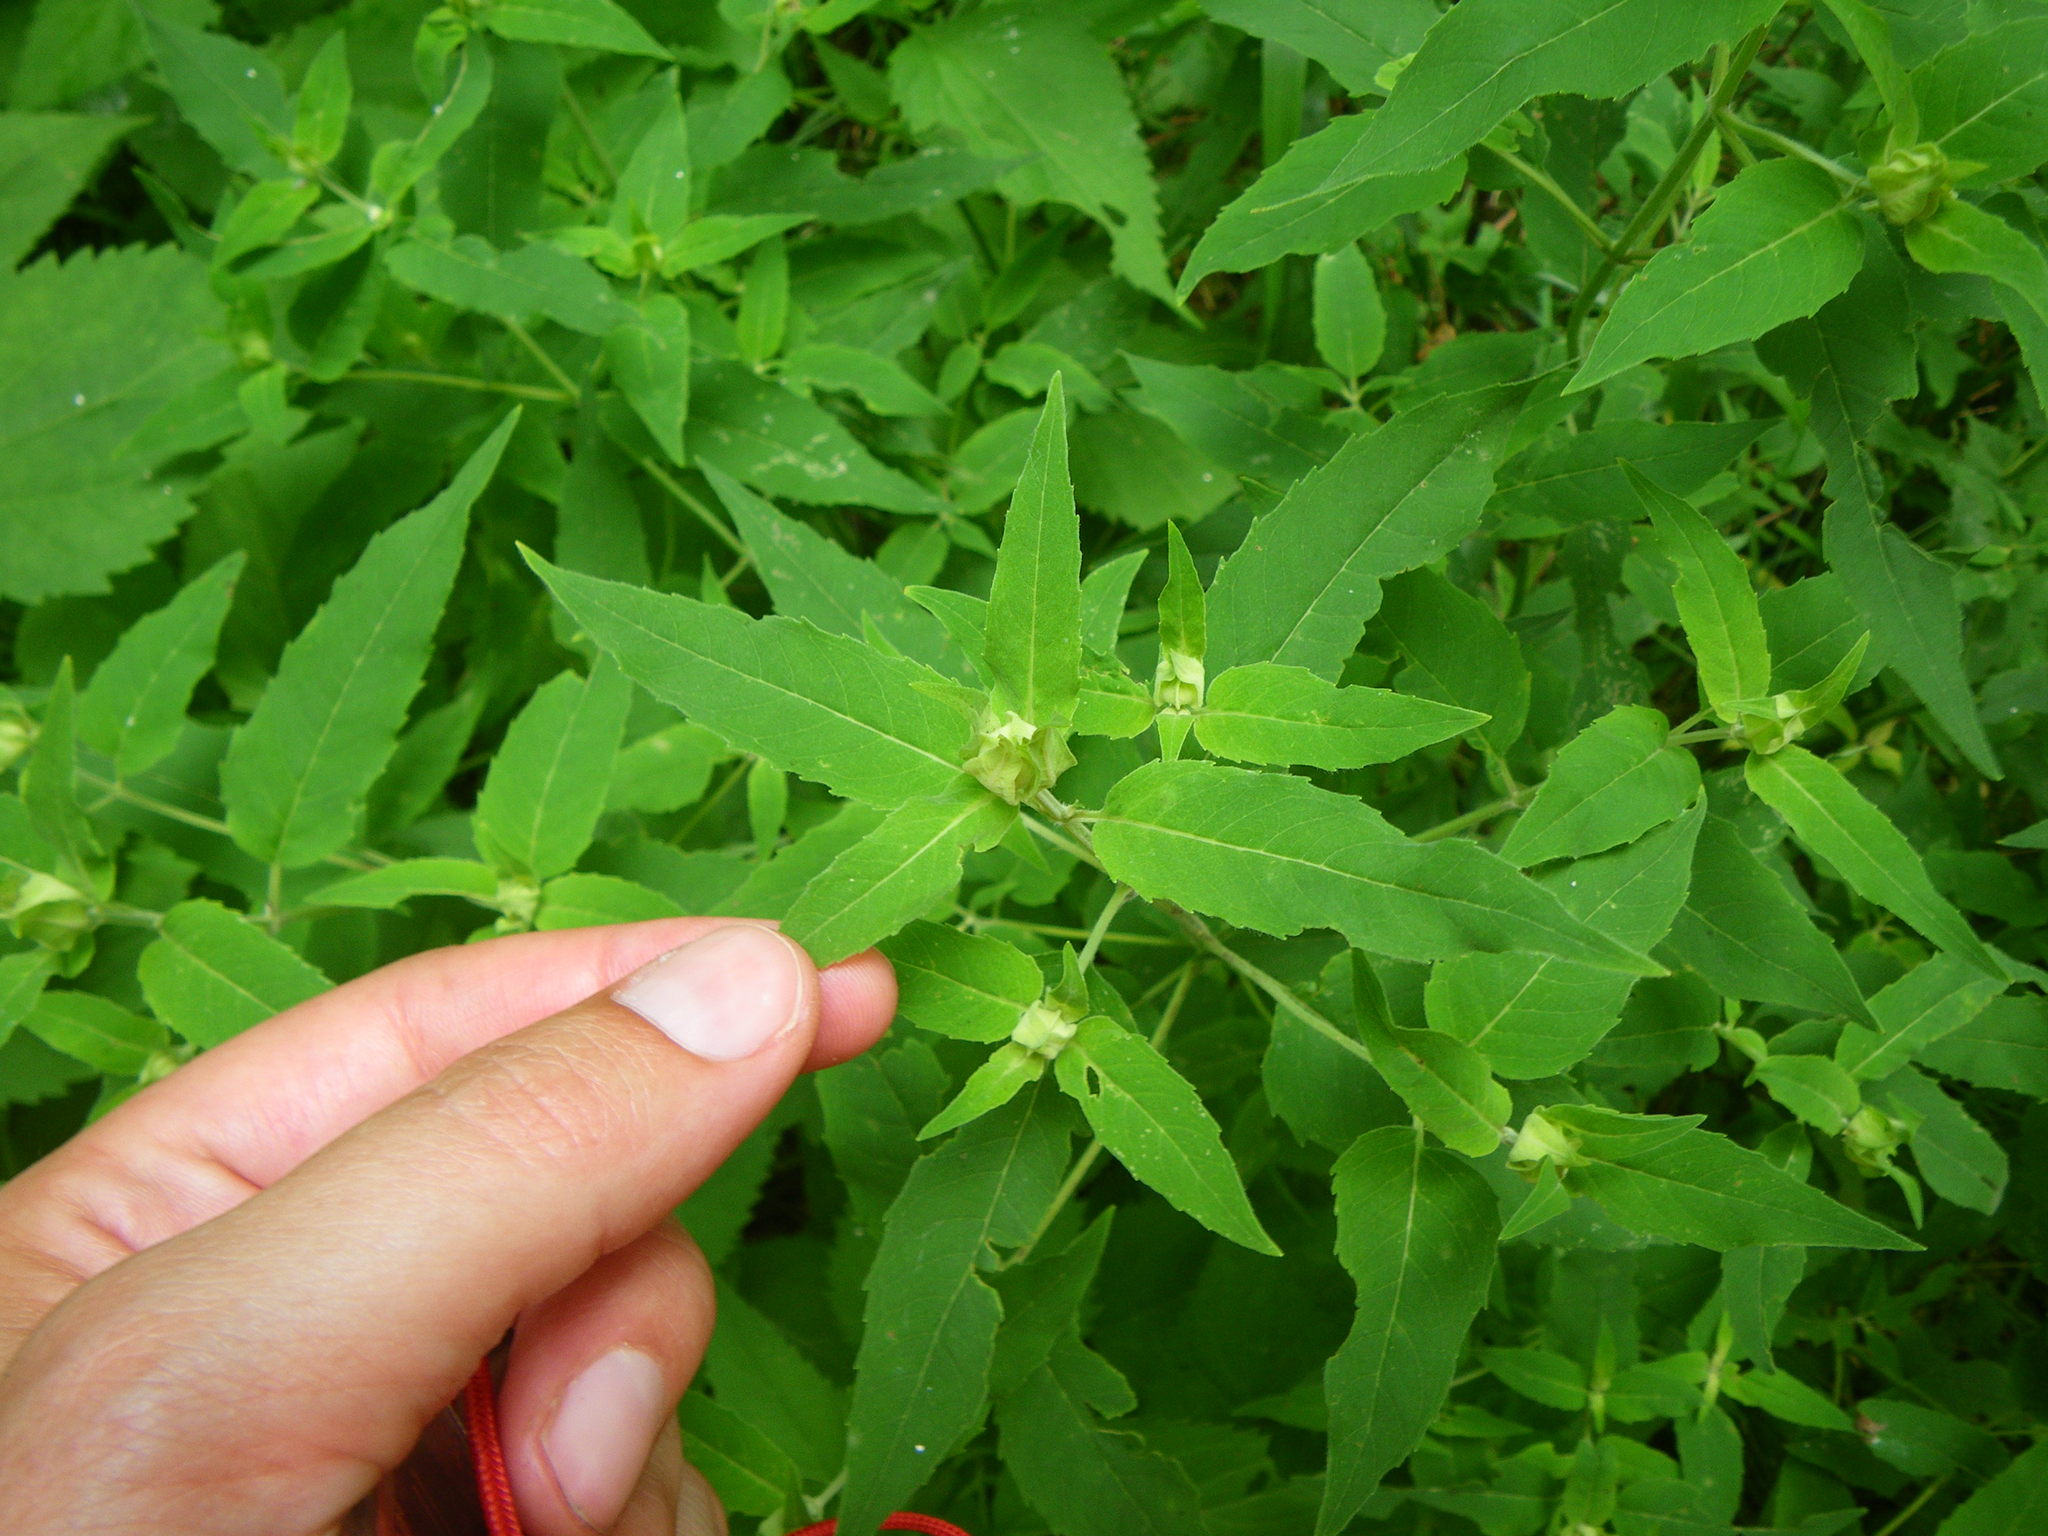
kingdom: Plantae
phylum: Tracheophyta
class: Magnoliopsida
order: Lamiales
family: Lamiaceae
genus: Monarda
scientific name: Monarda fistulosa
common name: Purple beebalm
